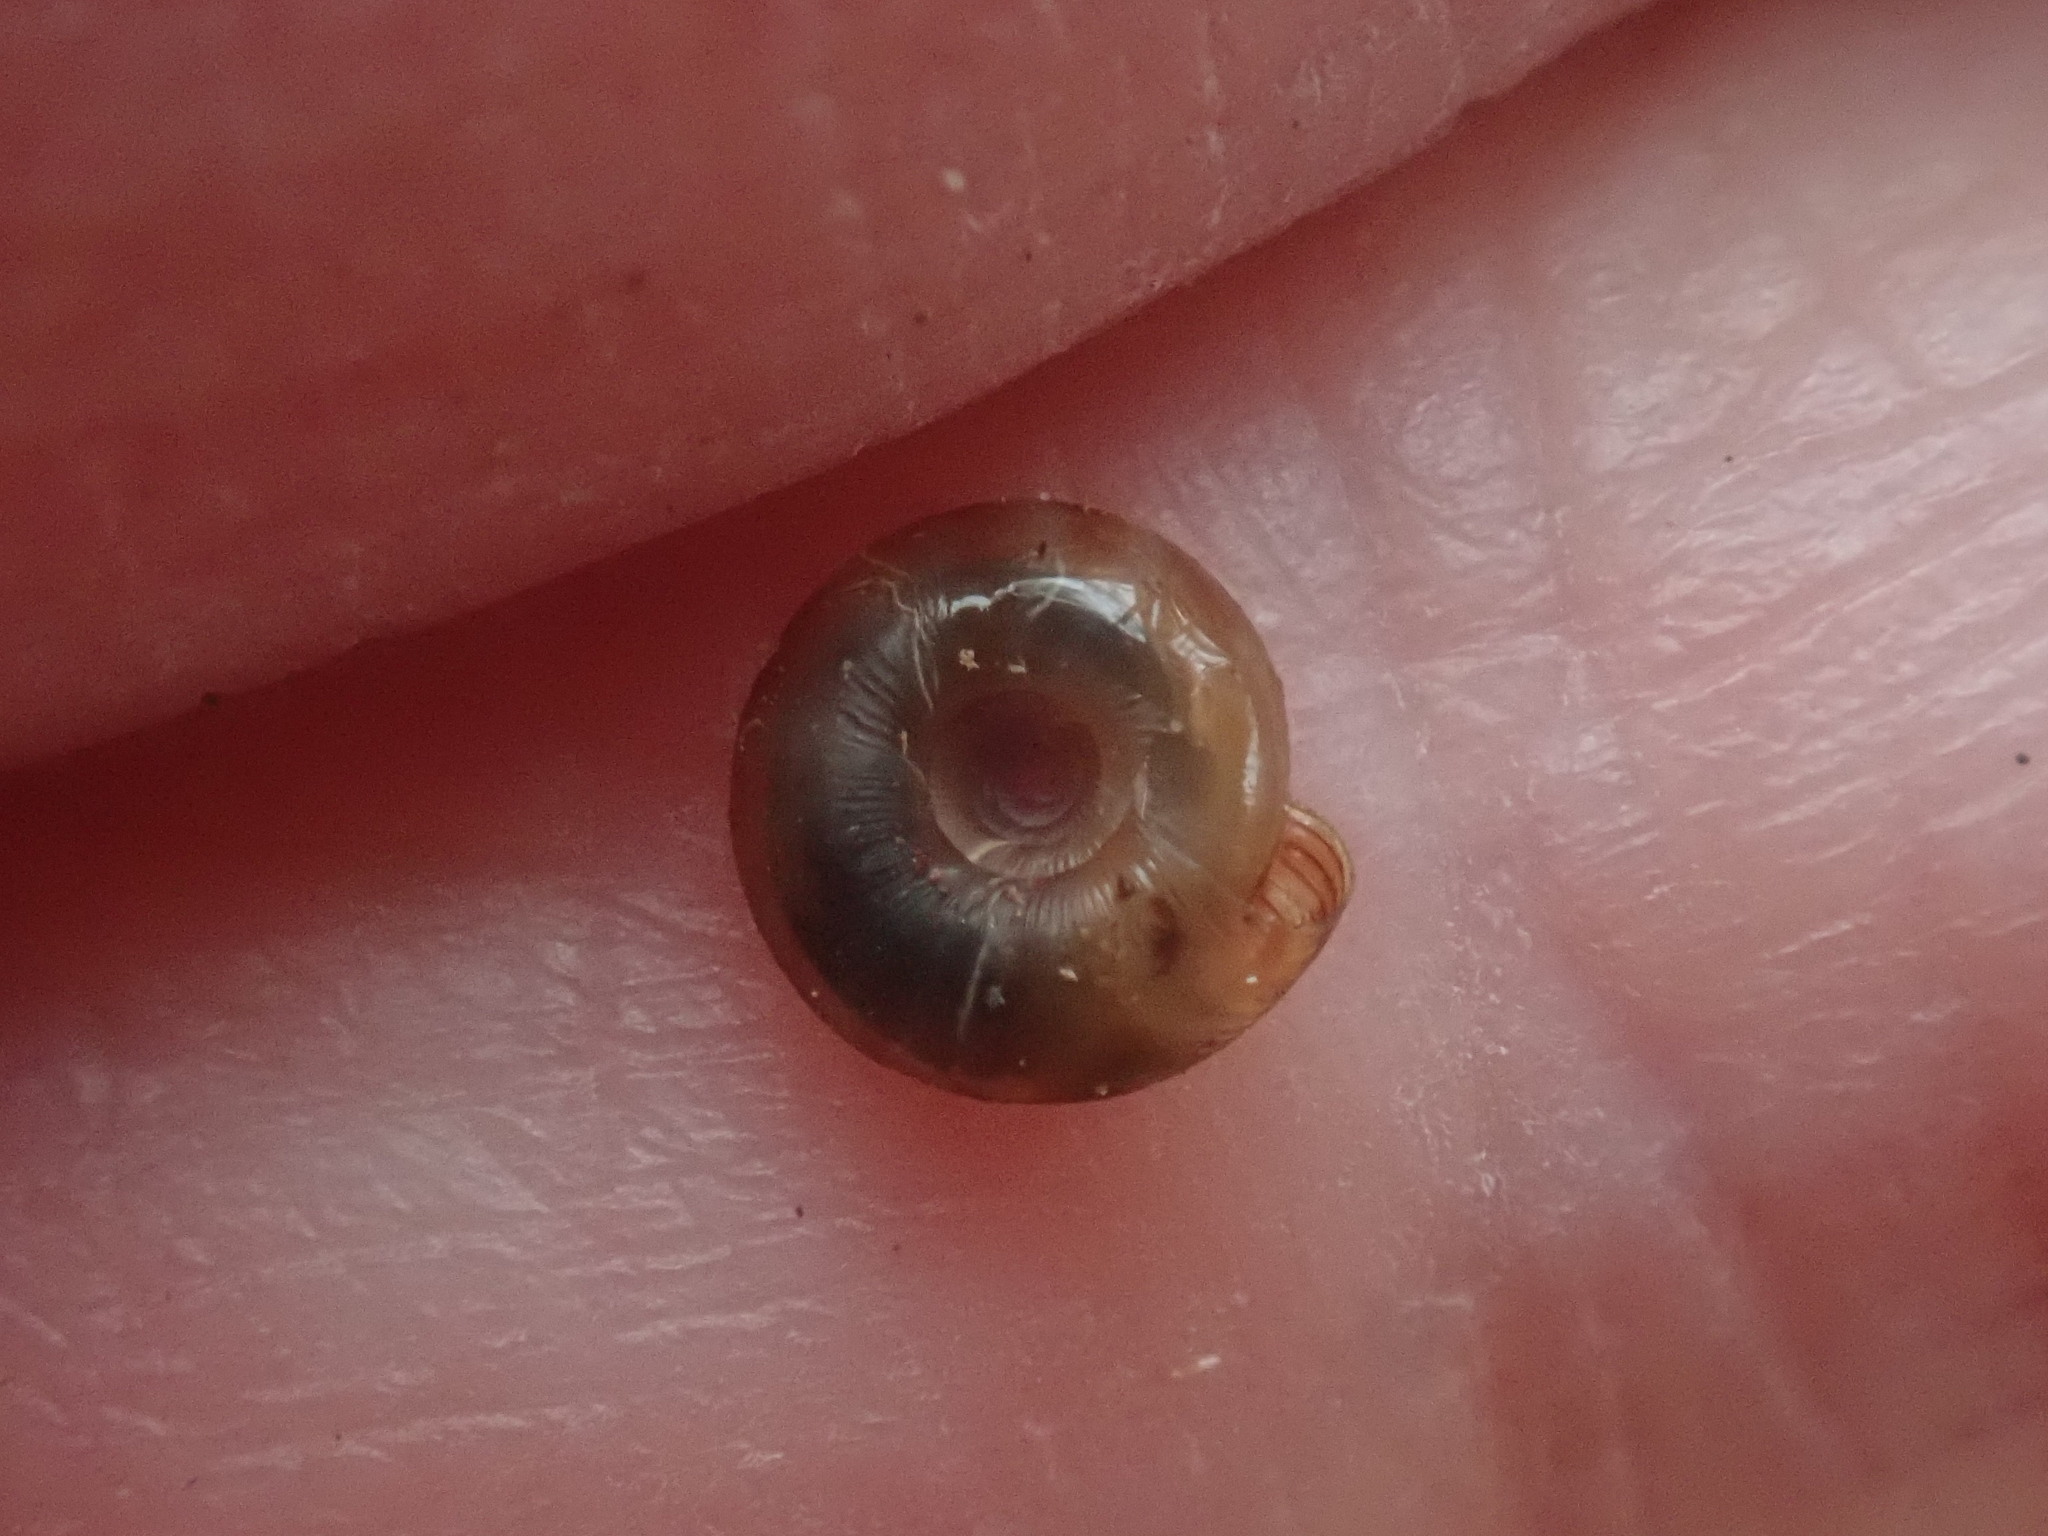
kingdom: Animalia
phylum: Mollusca
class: Gastropoda
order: Stylommatophora
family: Discidae
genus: Discus
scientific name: Discus rotundatus
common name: Rounded snail
